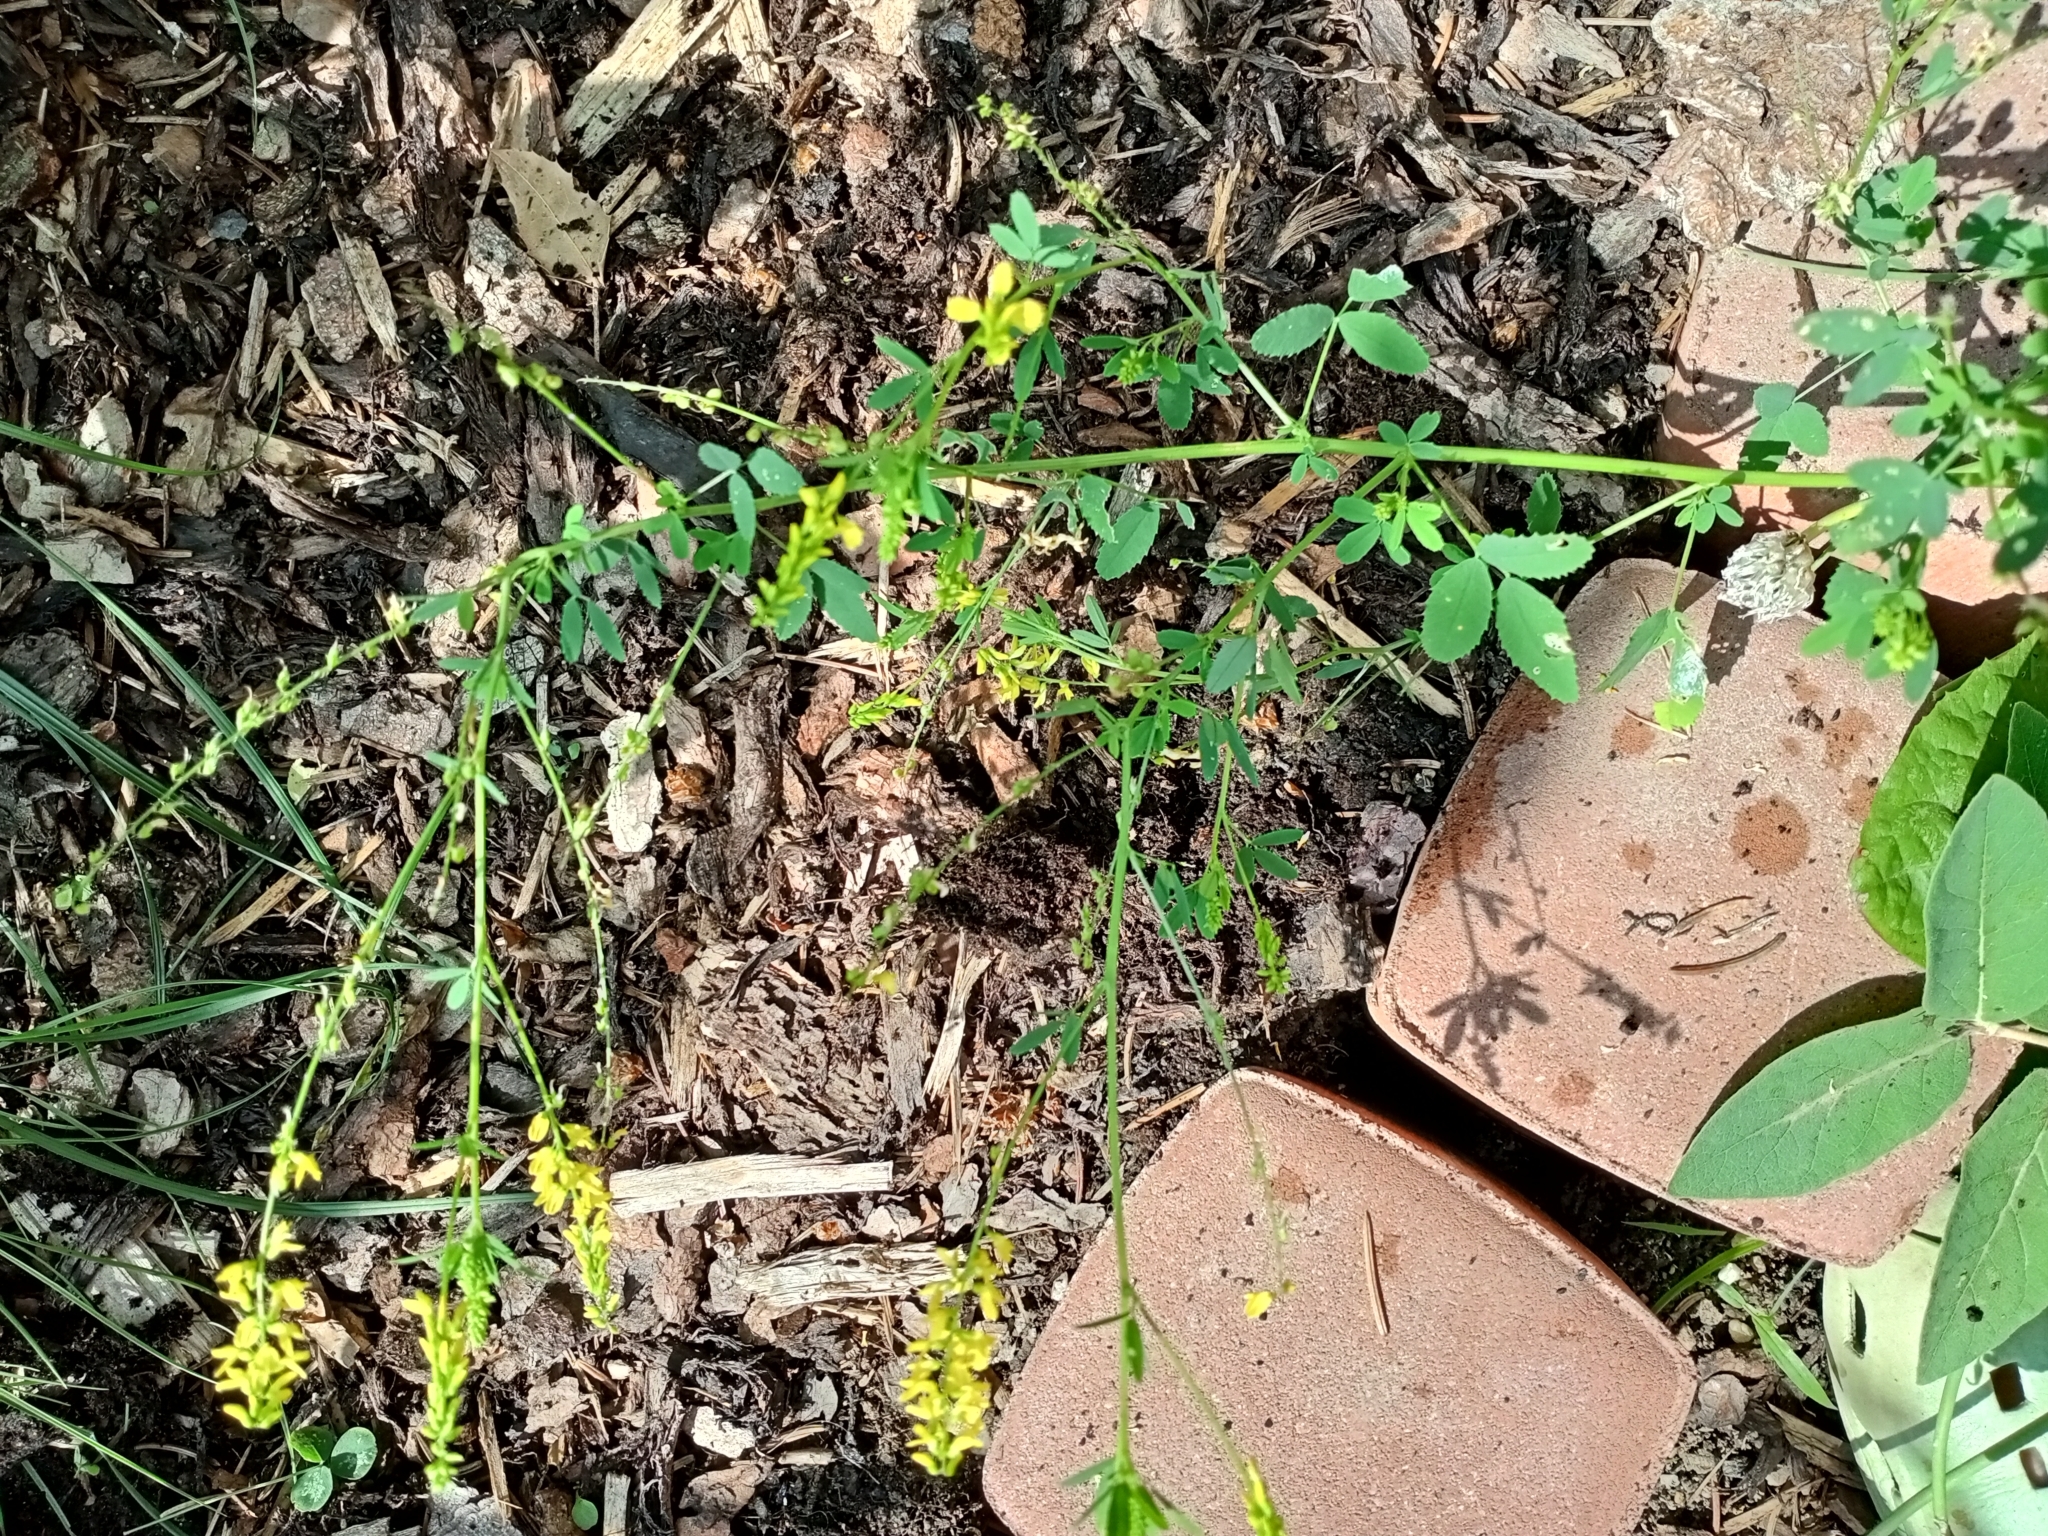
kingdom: Plantae
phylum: Tracheophyta
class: Magnoliopsida
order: Fabales
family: Fabaceae
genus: Melilotus
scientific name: Melilotus officinalis
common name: Sweetclover
